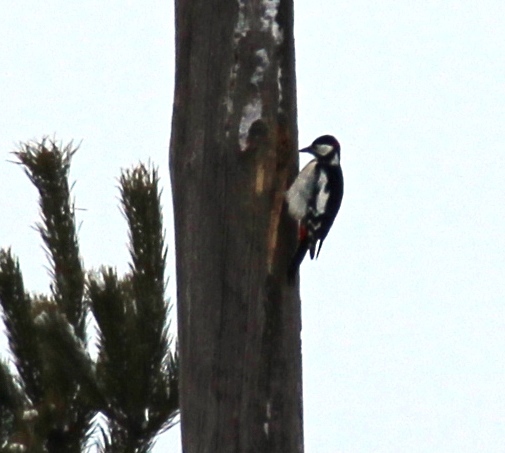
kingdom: Animalia
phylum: Chordata
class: Aves
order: Piciformes
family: Picidae
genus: Dendrocopos
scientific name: Dendrocopos major
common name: Great spotted woodpecker
